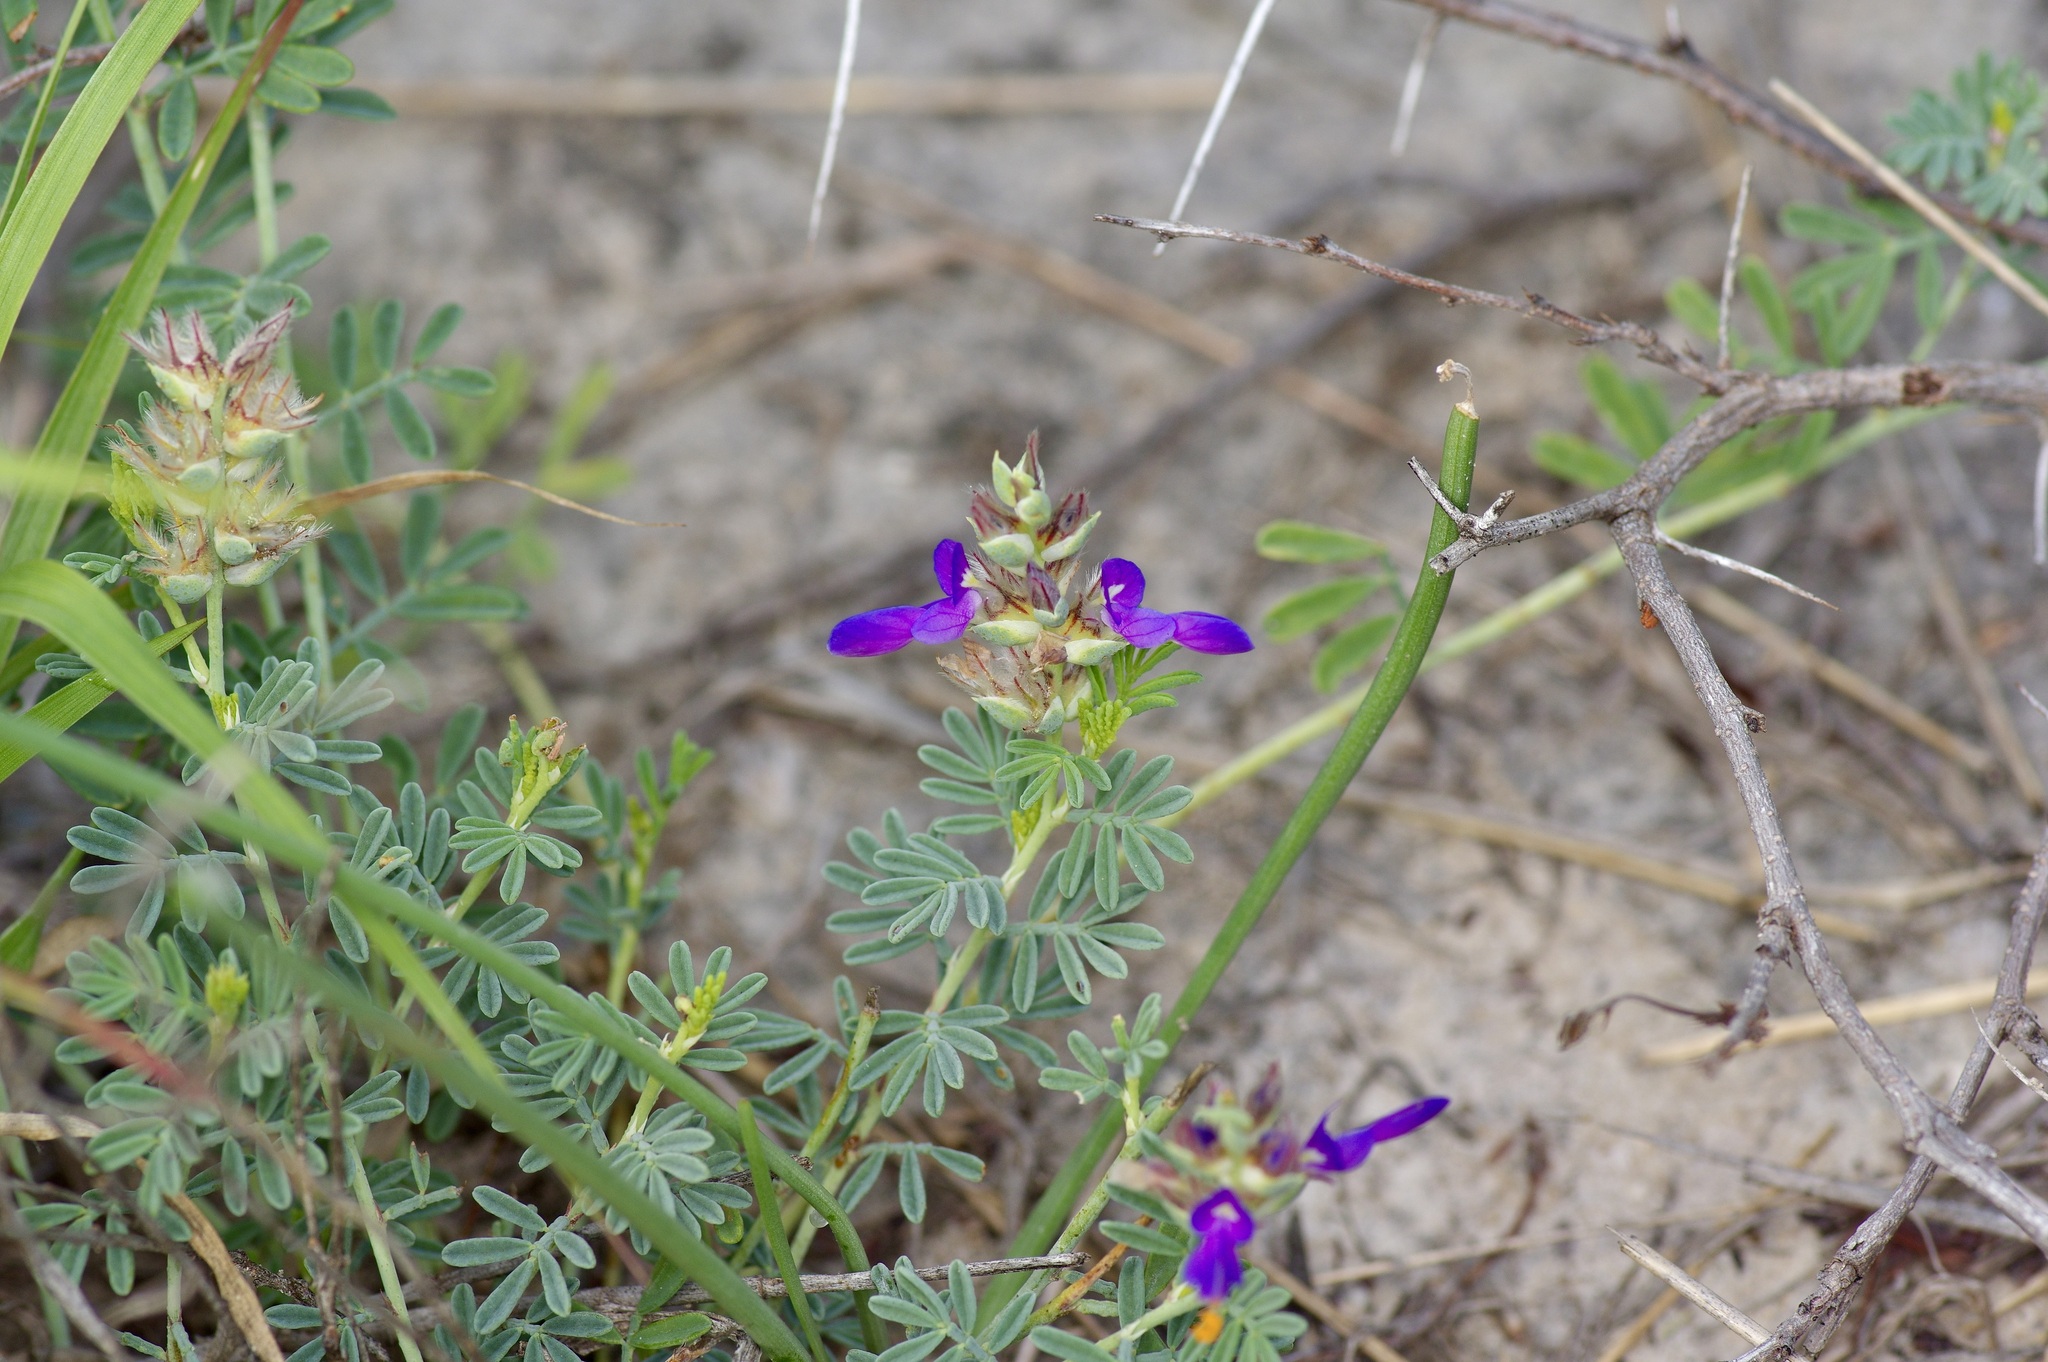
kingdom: Plantae
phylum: Tracheophyta
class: Magnoliopsida
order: Fabales
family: Fabaceae
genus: Dalea
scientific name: Dalea pogonathera
